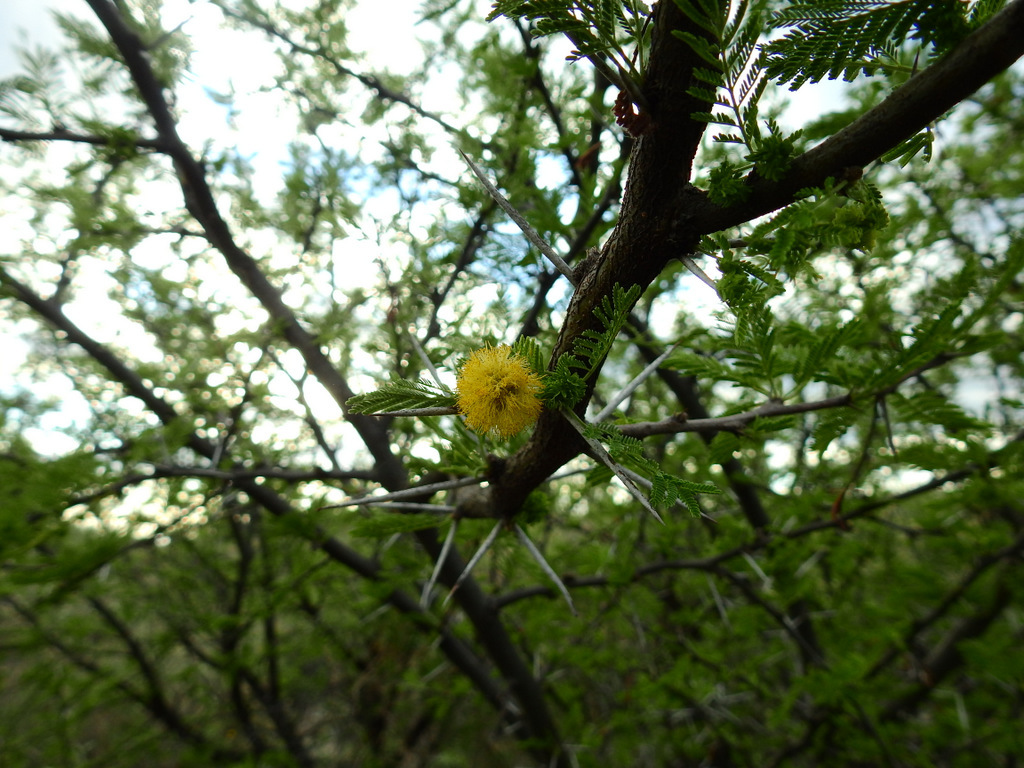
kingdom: Plantae
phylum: Tracheophyta
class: Magnoliopsida
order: Fabales
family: Fabaceae
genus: Vachellia
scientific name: Vachellia caven
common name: Roman cassie
